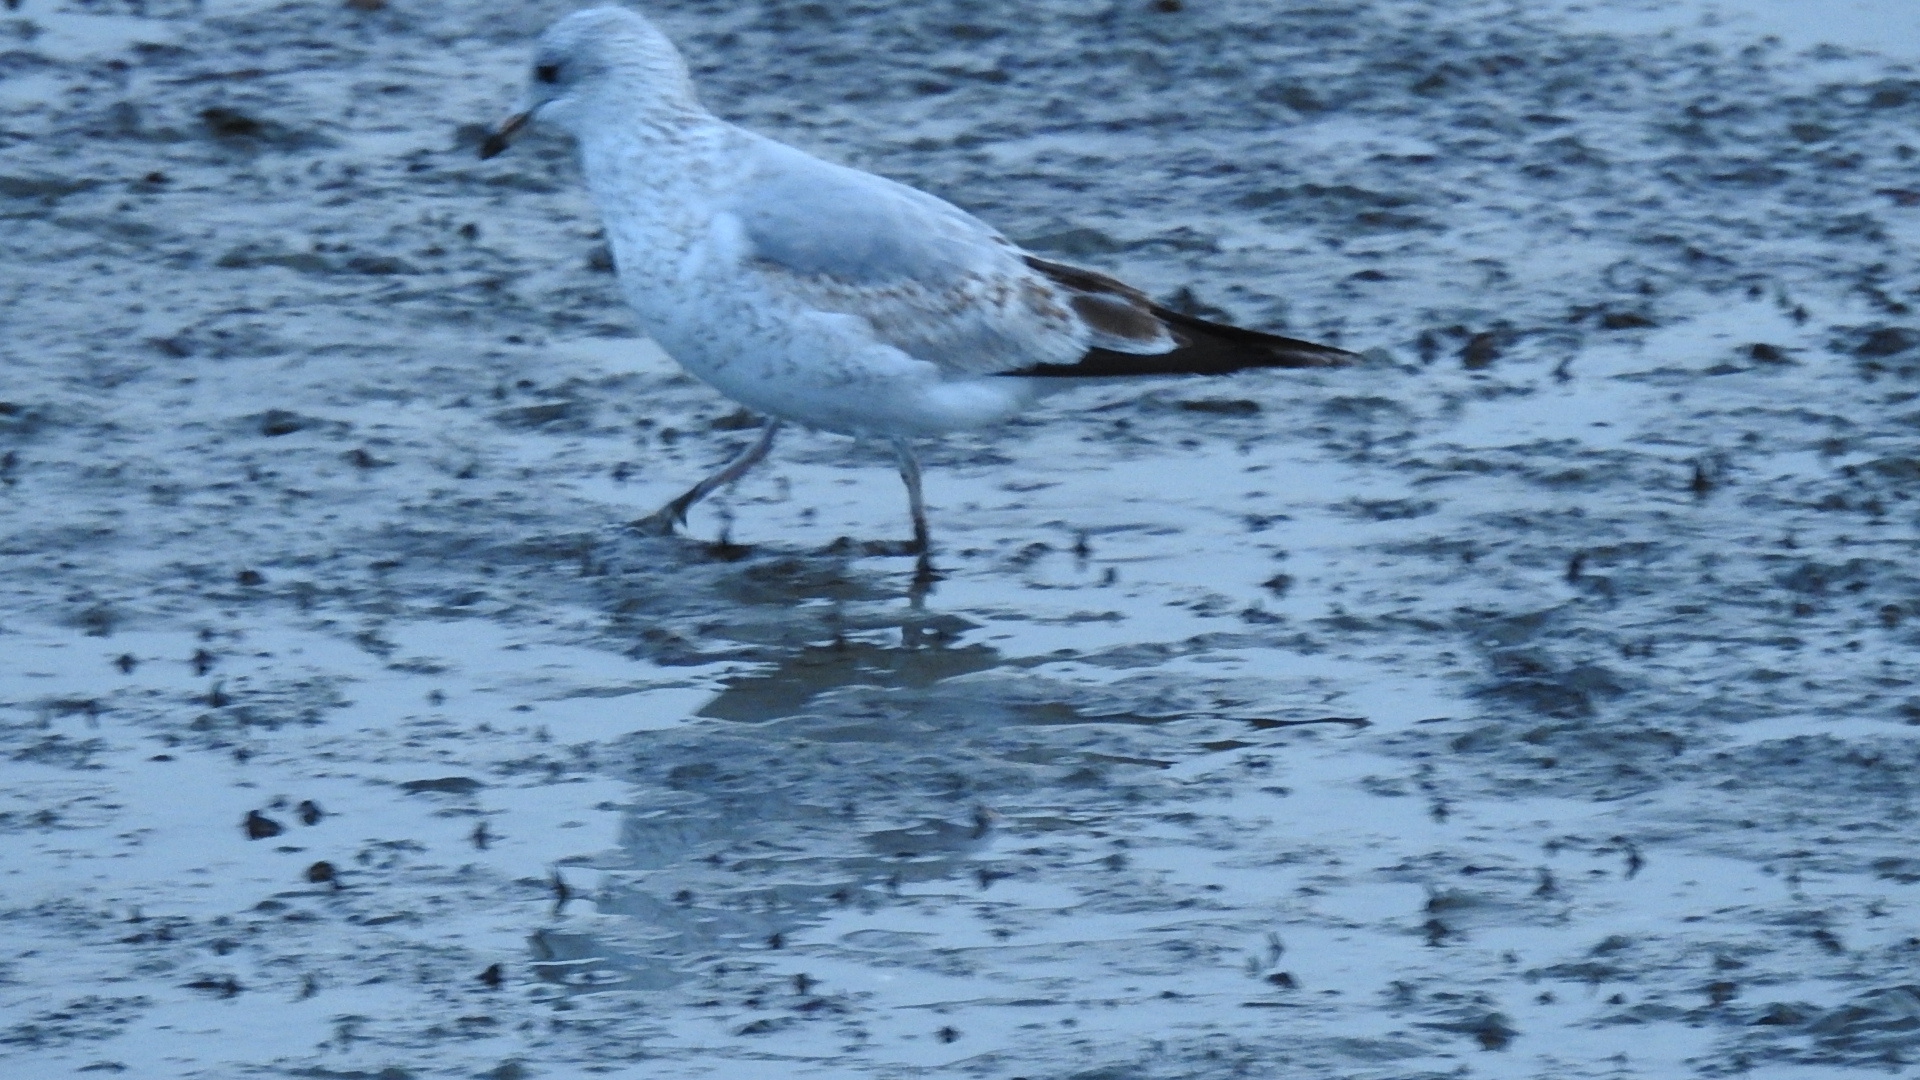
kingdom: Animalia
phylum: Chordata
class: Aves
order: Charadriiformes
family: Laridae
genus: Larus
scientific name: Larus delawarensis
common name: Ring-billed gull
